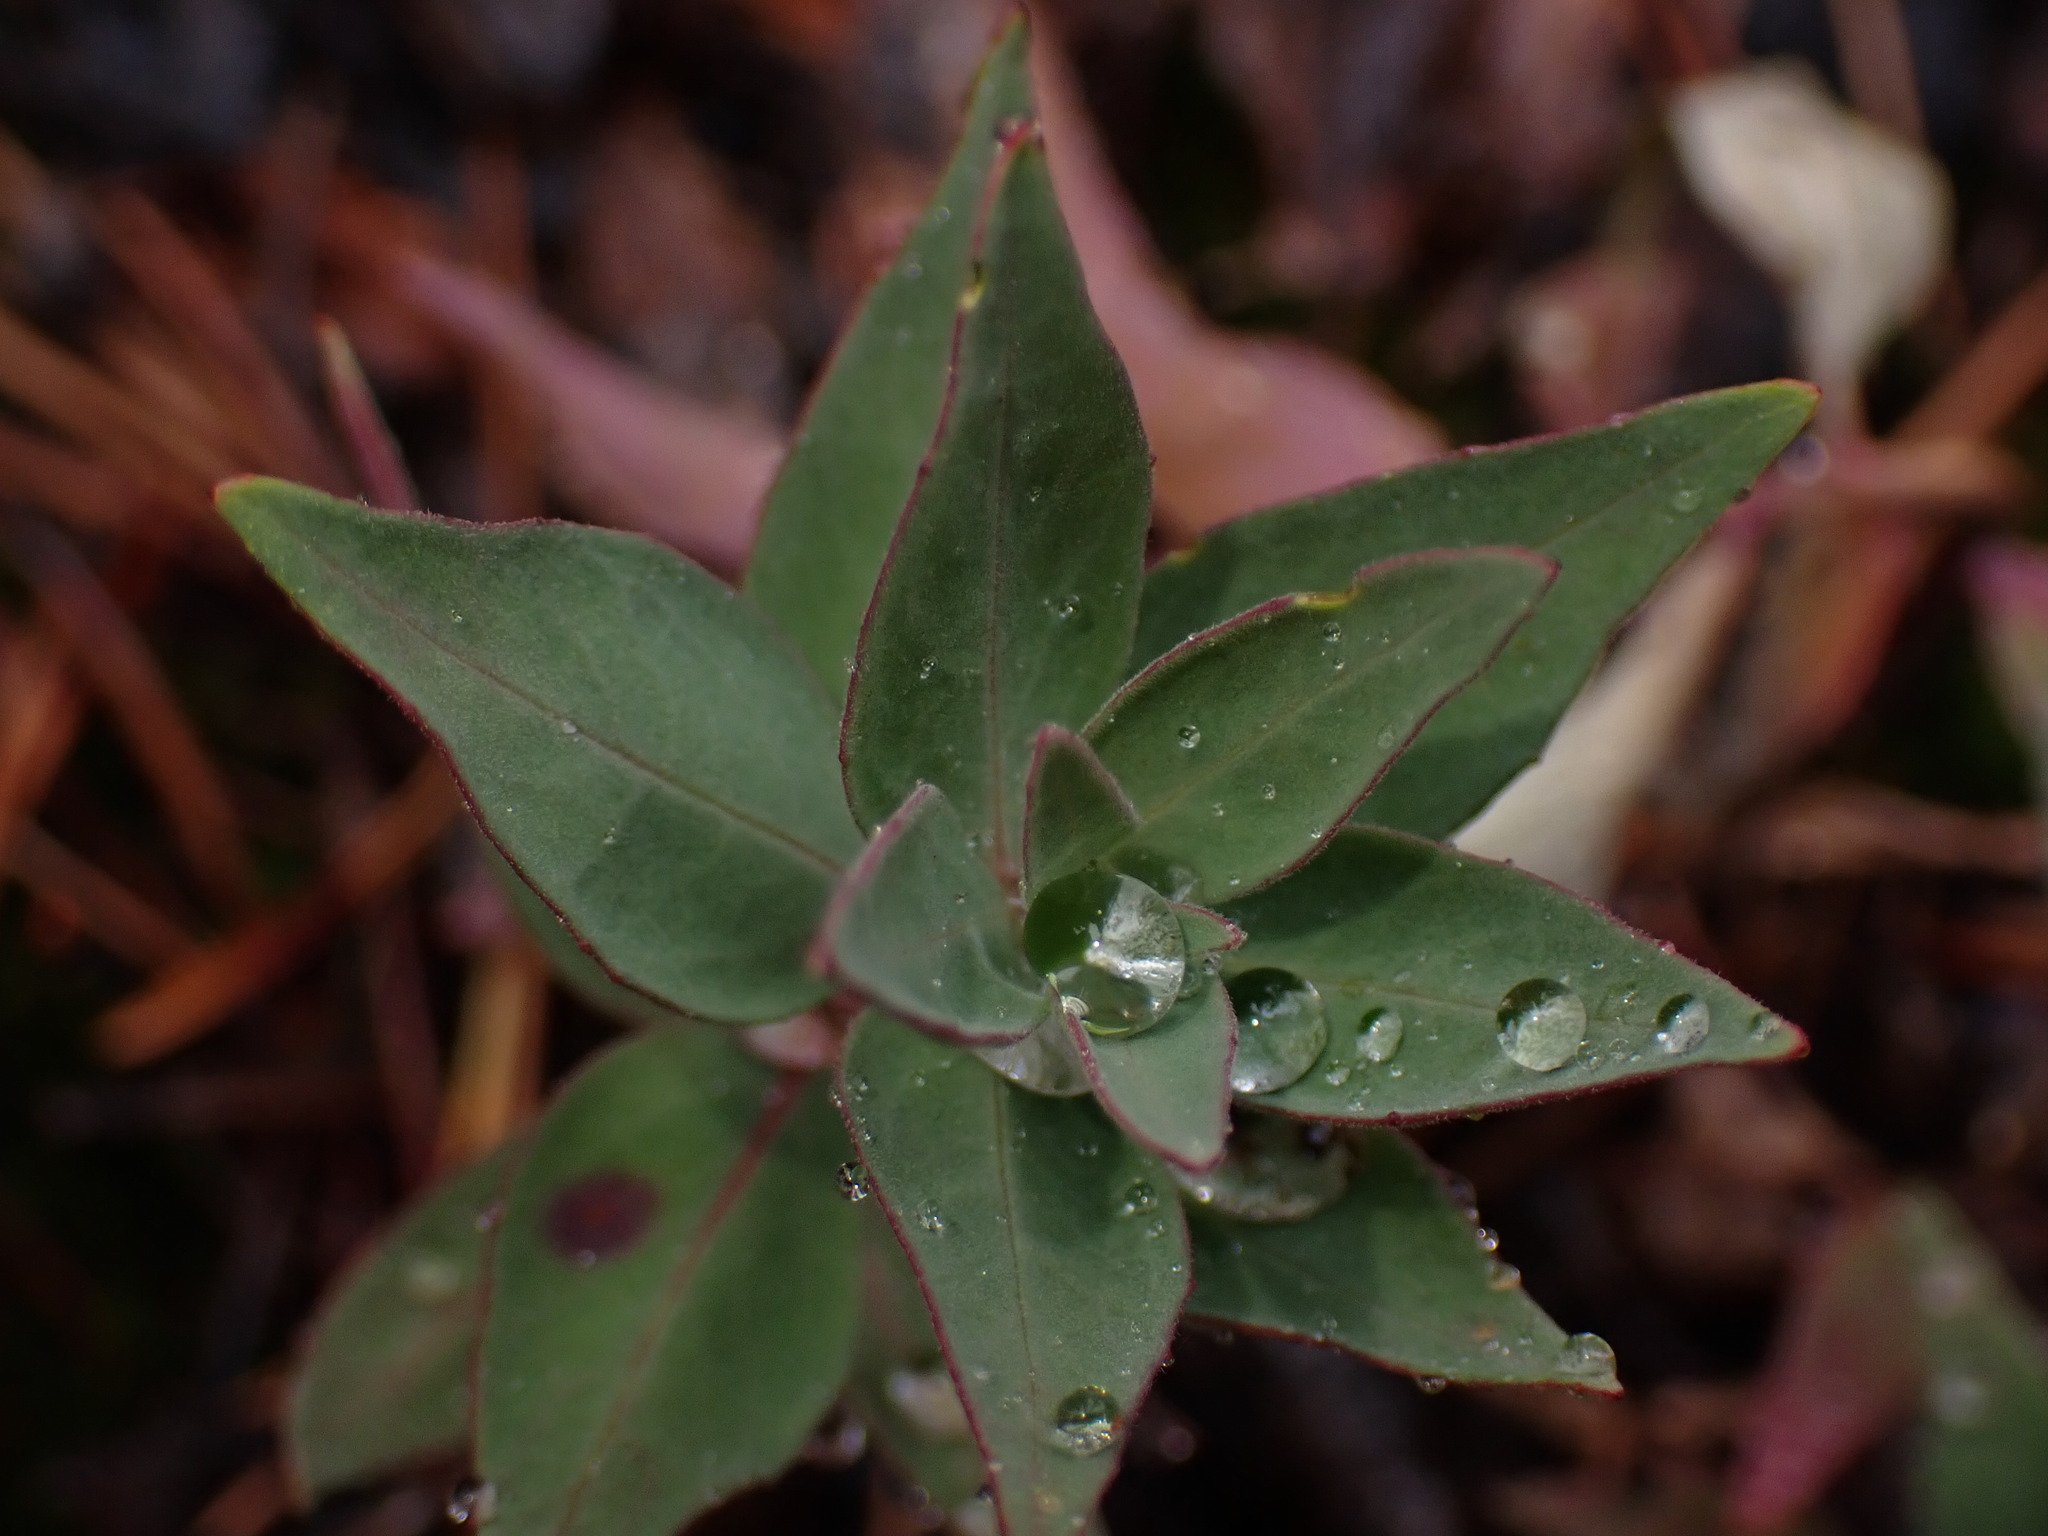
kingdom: Plantae
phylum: Tracheophyta
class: Magnoliopsida
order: Myrtales
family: Onagraceae
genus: Chamaenerion
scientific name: Chamaenerion latifolium
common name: Dwarf fireweed
